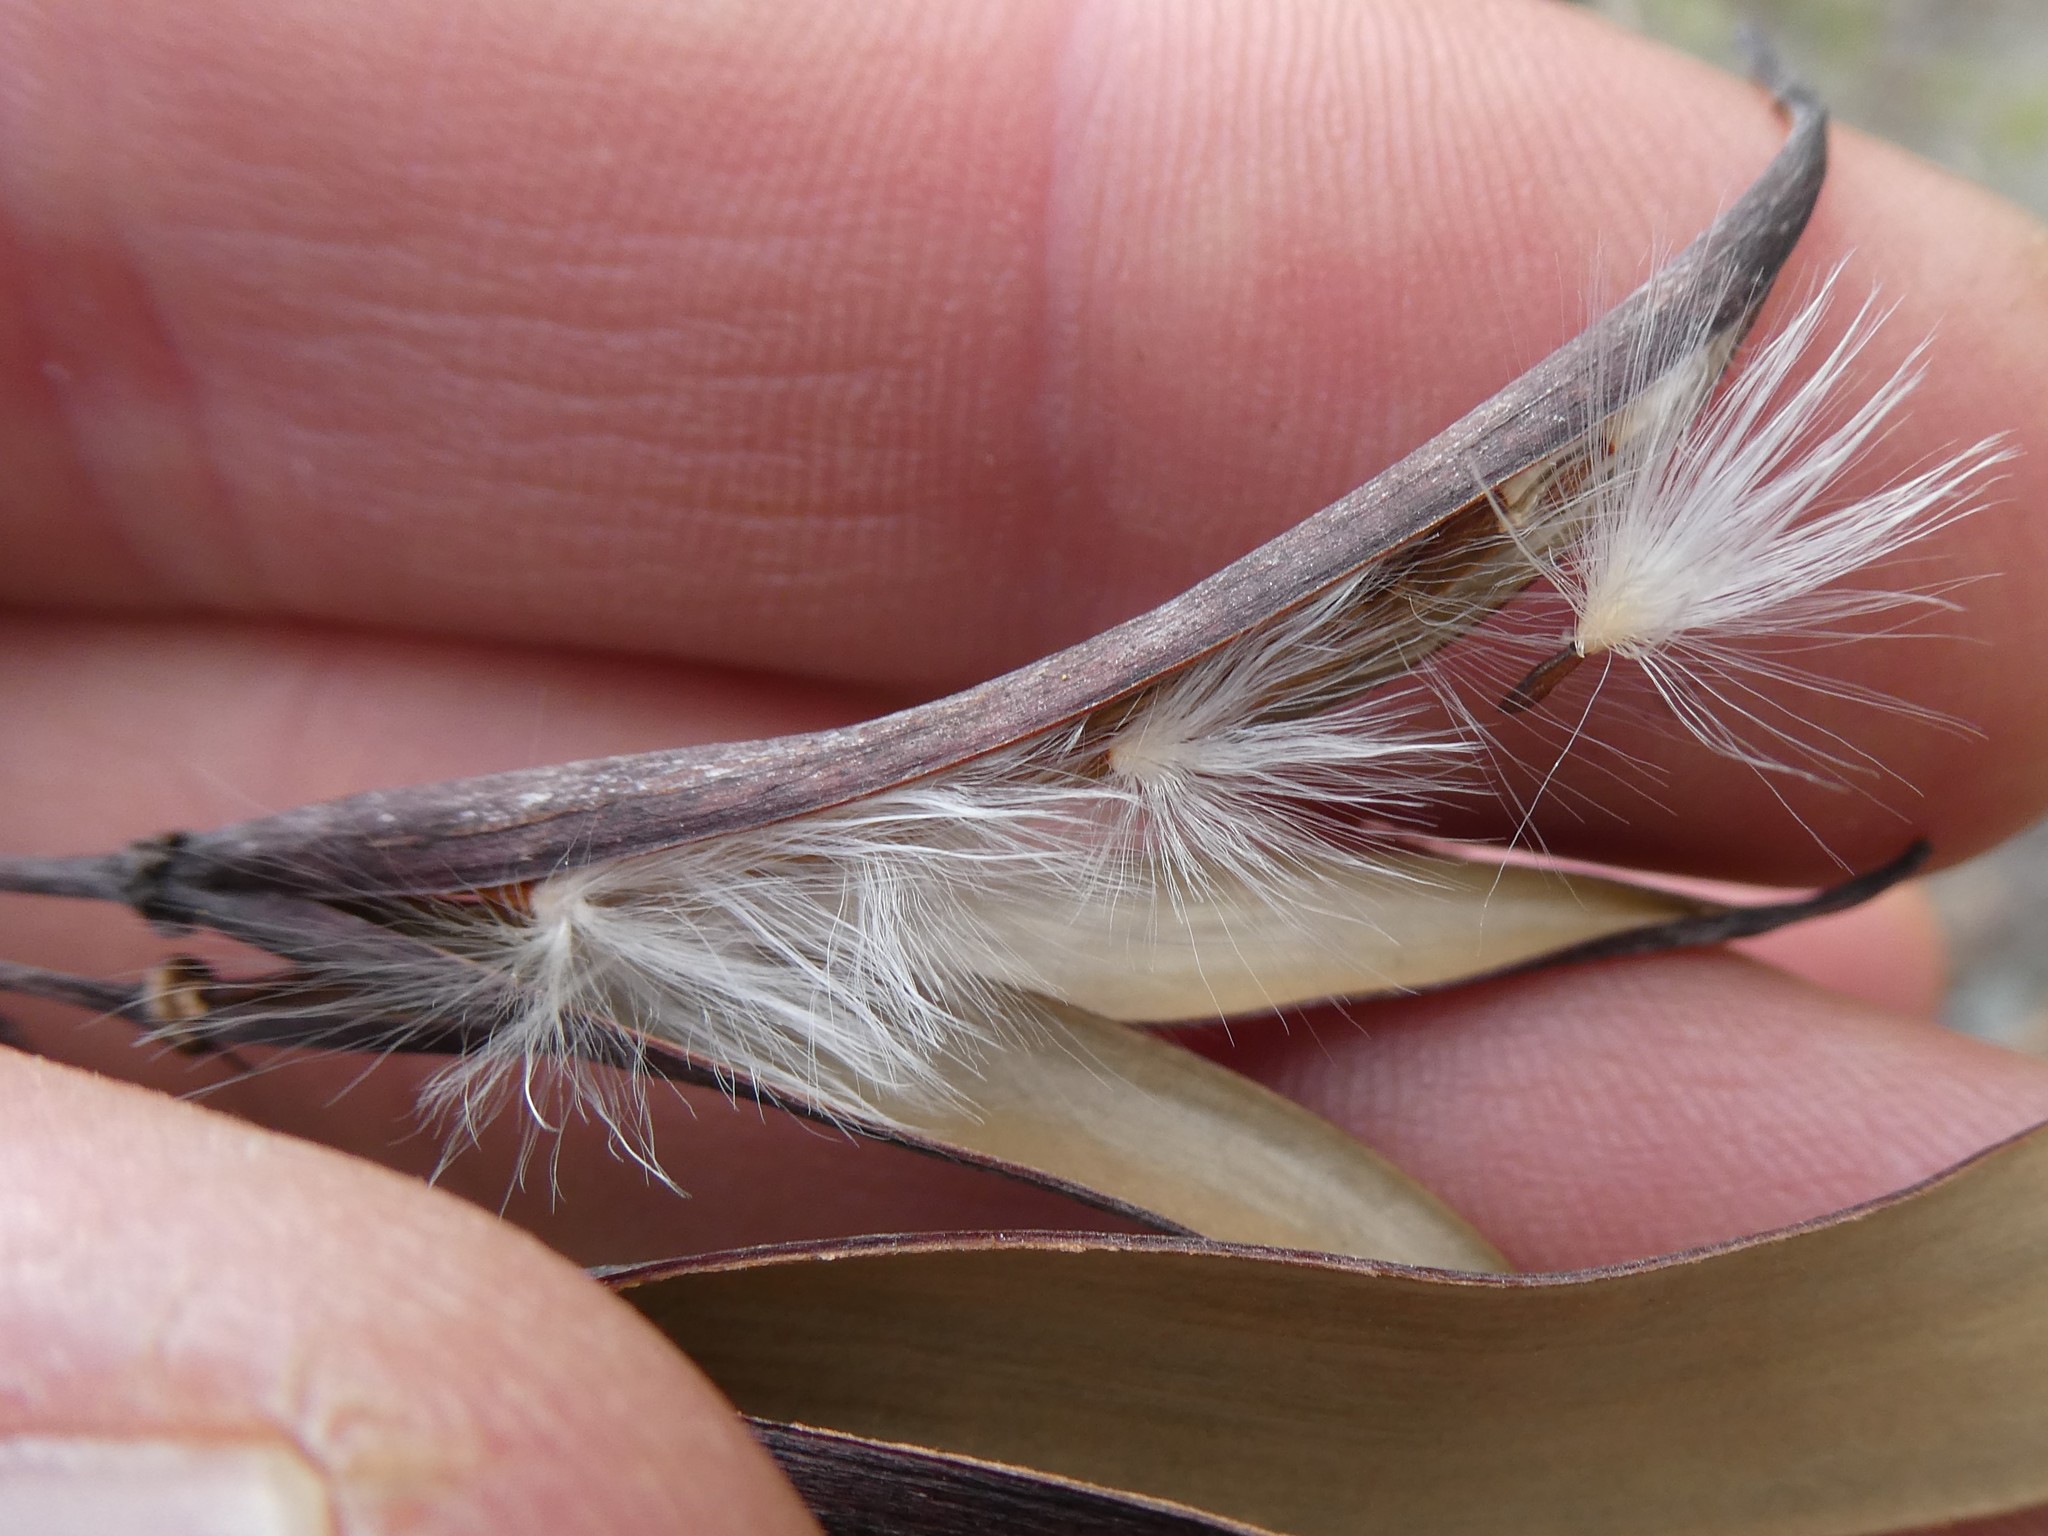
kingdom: Plantae
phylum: Tracheophyta
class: Magnoliopsida
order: Gentianales
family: Apocynaceae
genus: Apocynum
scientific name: Apocynum cannabinum
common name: Hemp dogbane
